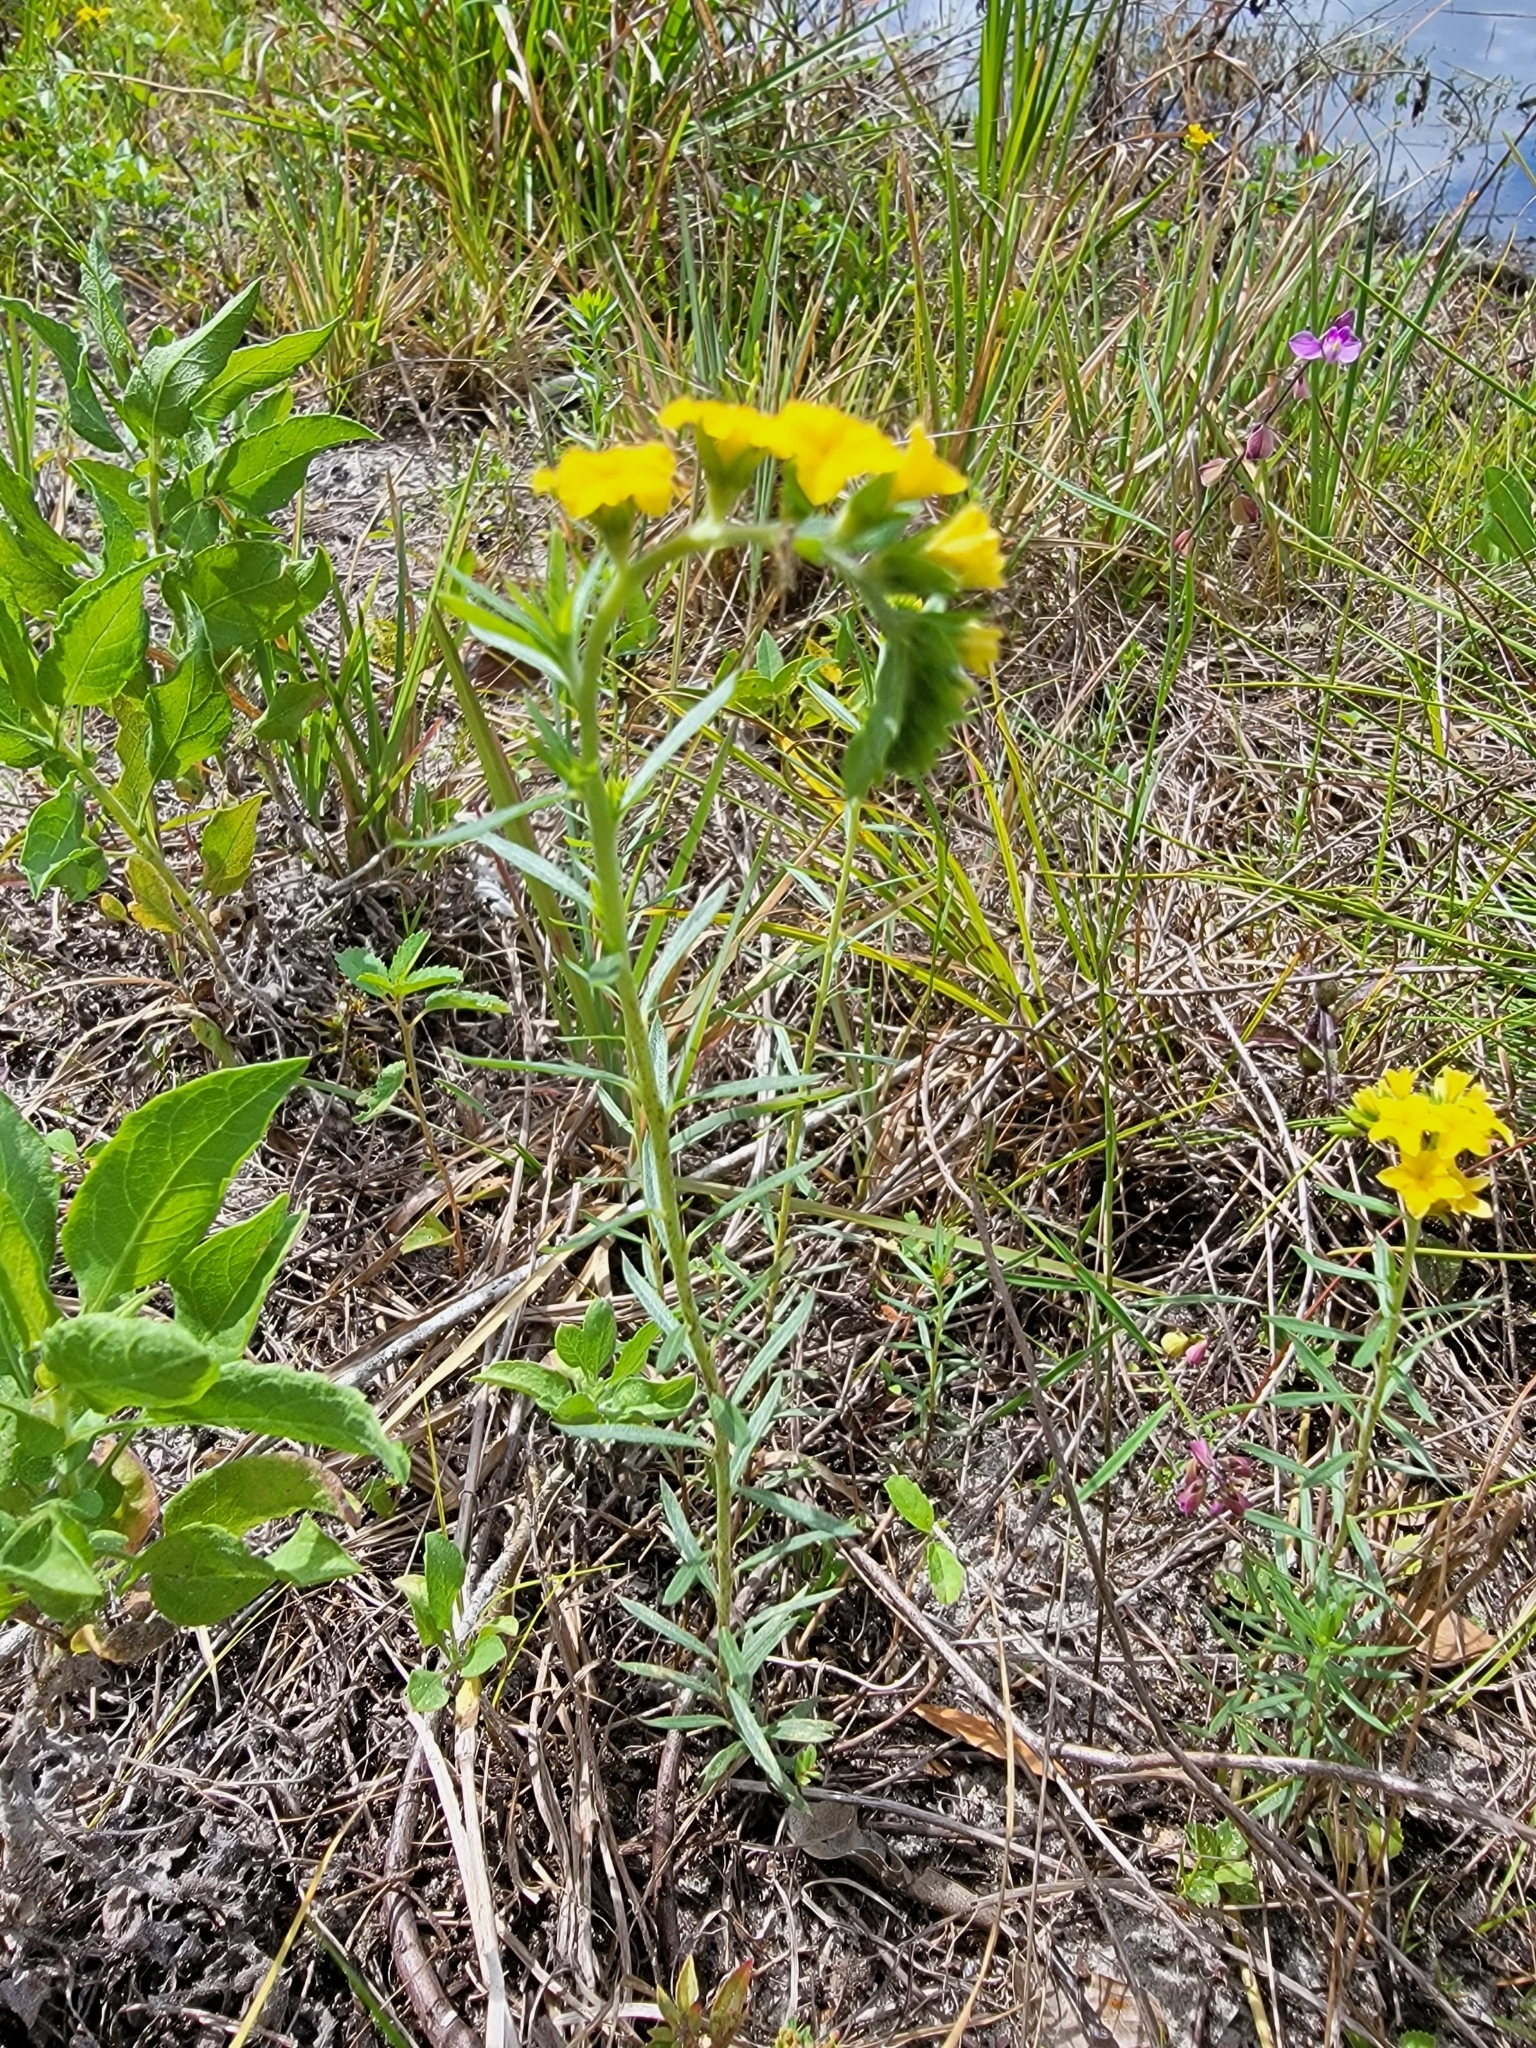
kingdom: Plantae
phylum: Tracheophyta
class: Magnoliopsida
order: Boraginales
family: Heliotropiaceae
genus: Euploca
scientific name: Euploca polyphylla
